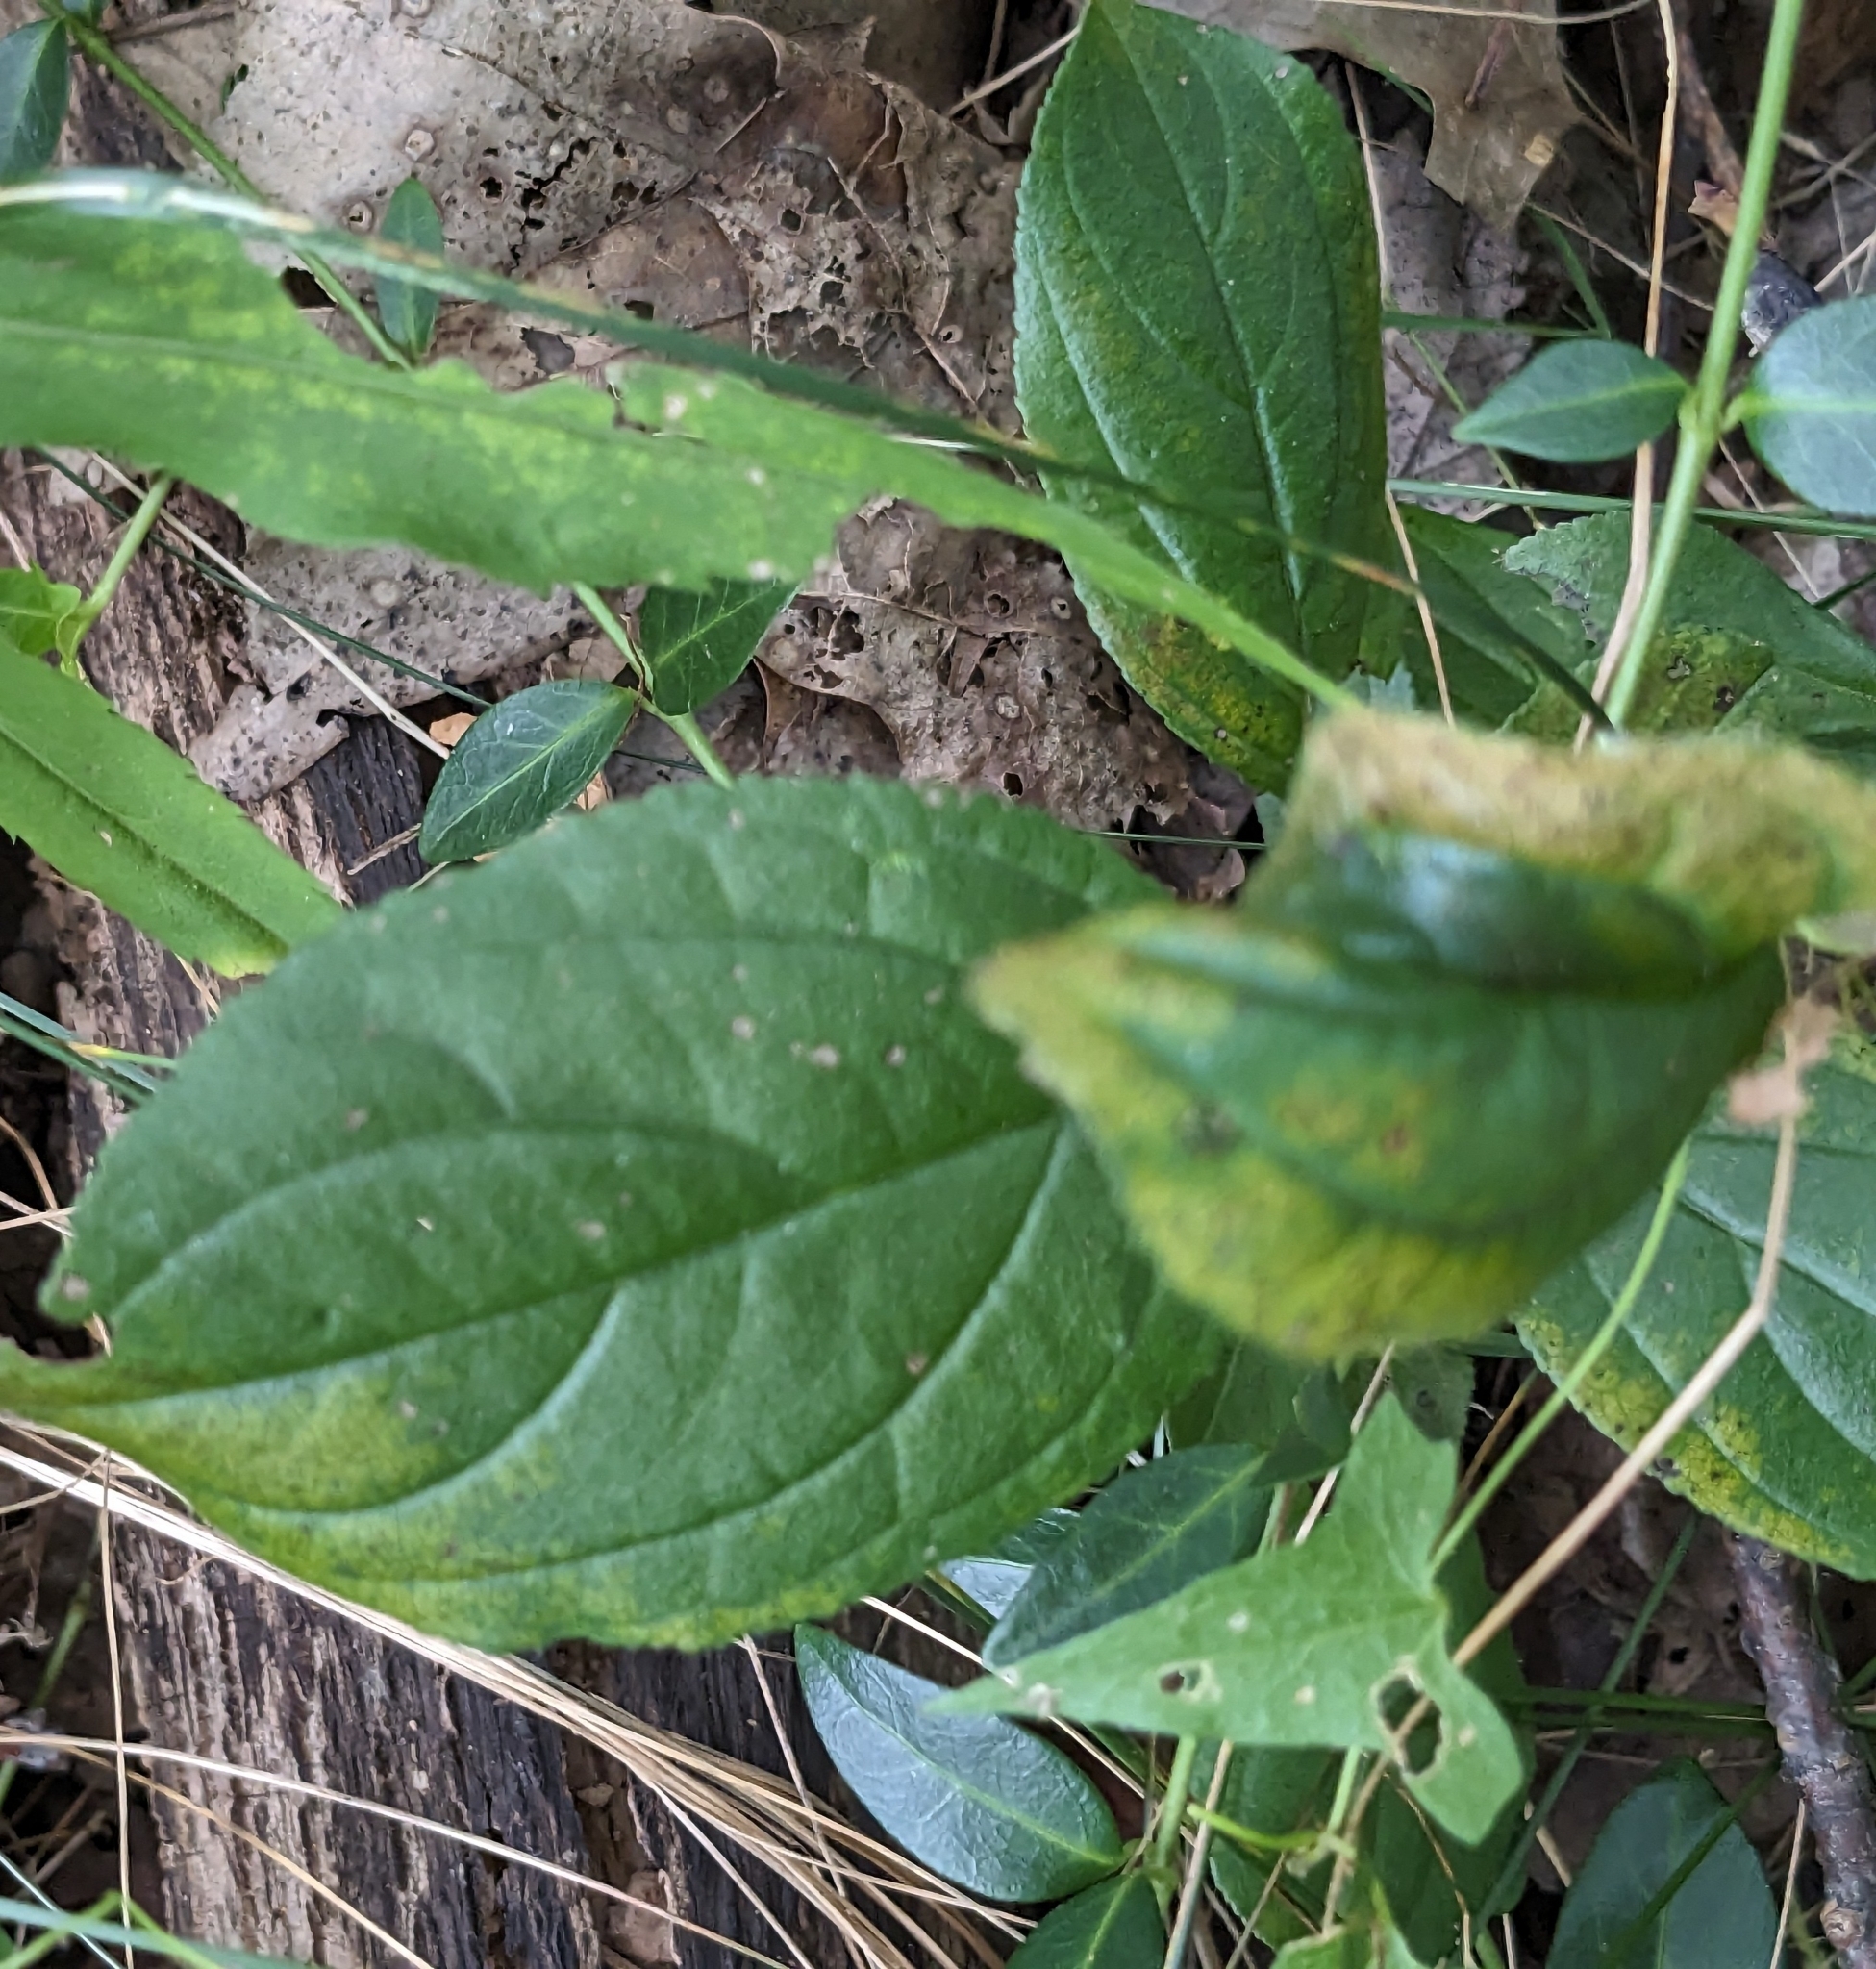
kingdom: Plantae
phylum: Tracheophyta
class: Magnoliopsida
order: Rosales
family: Rhamnaceae
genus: Rhamnus
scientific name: Rhamnus cathartica
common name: Common buckthorn
